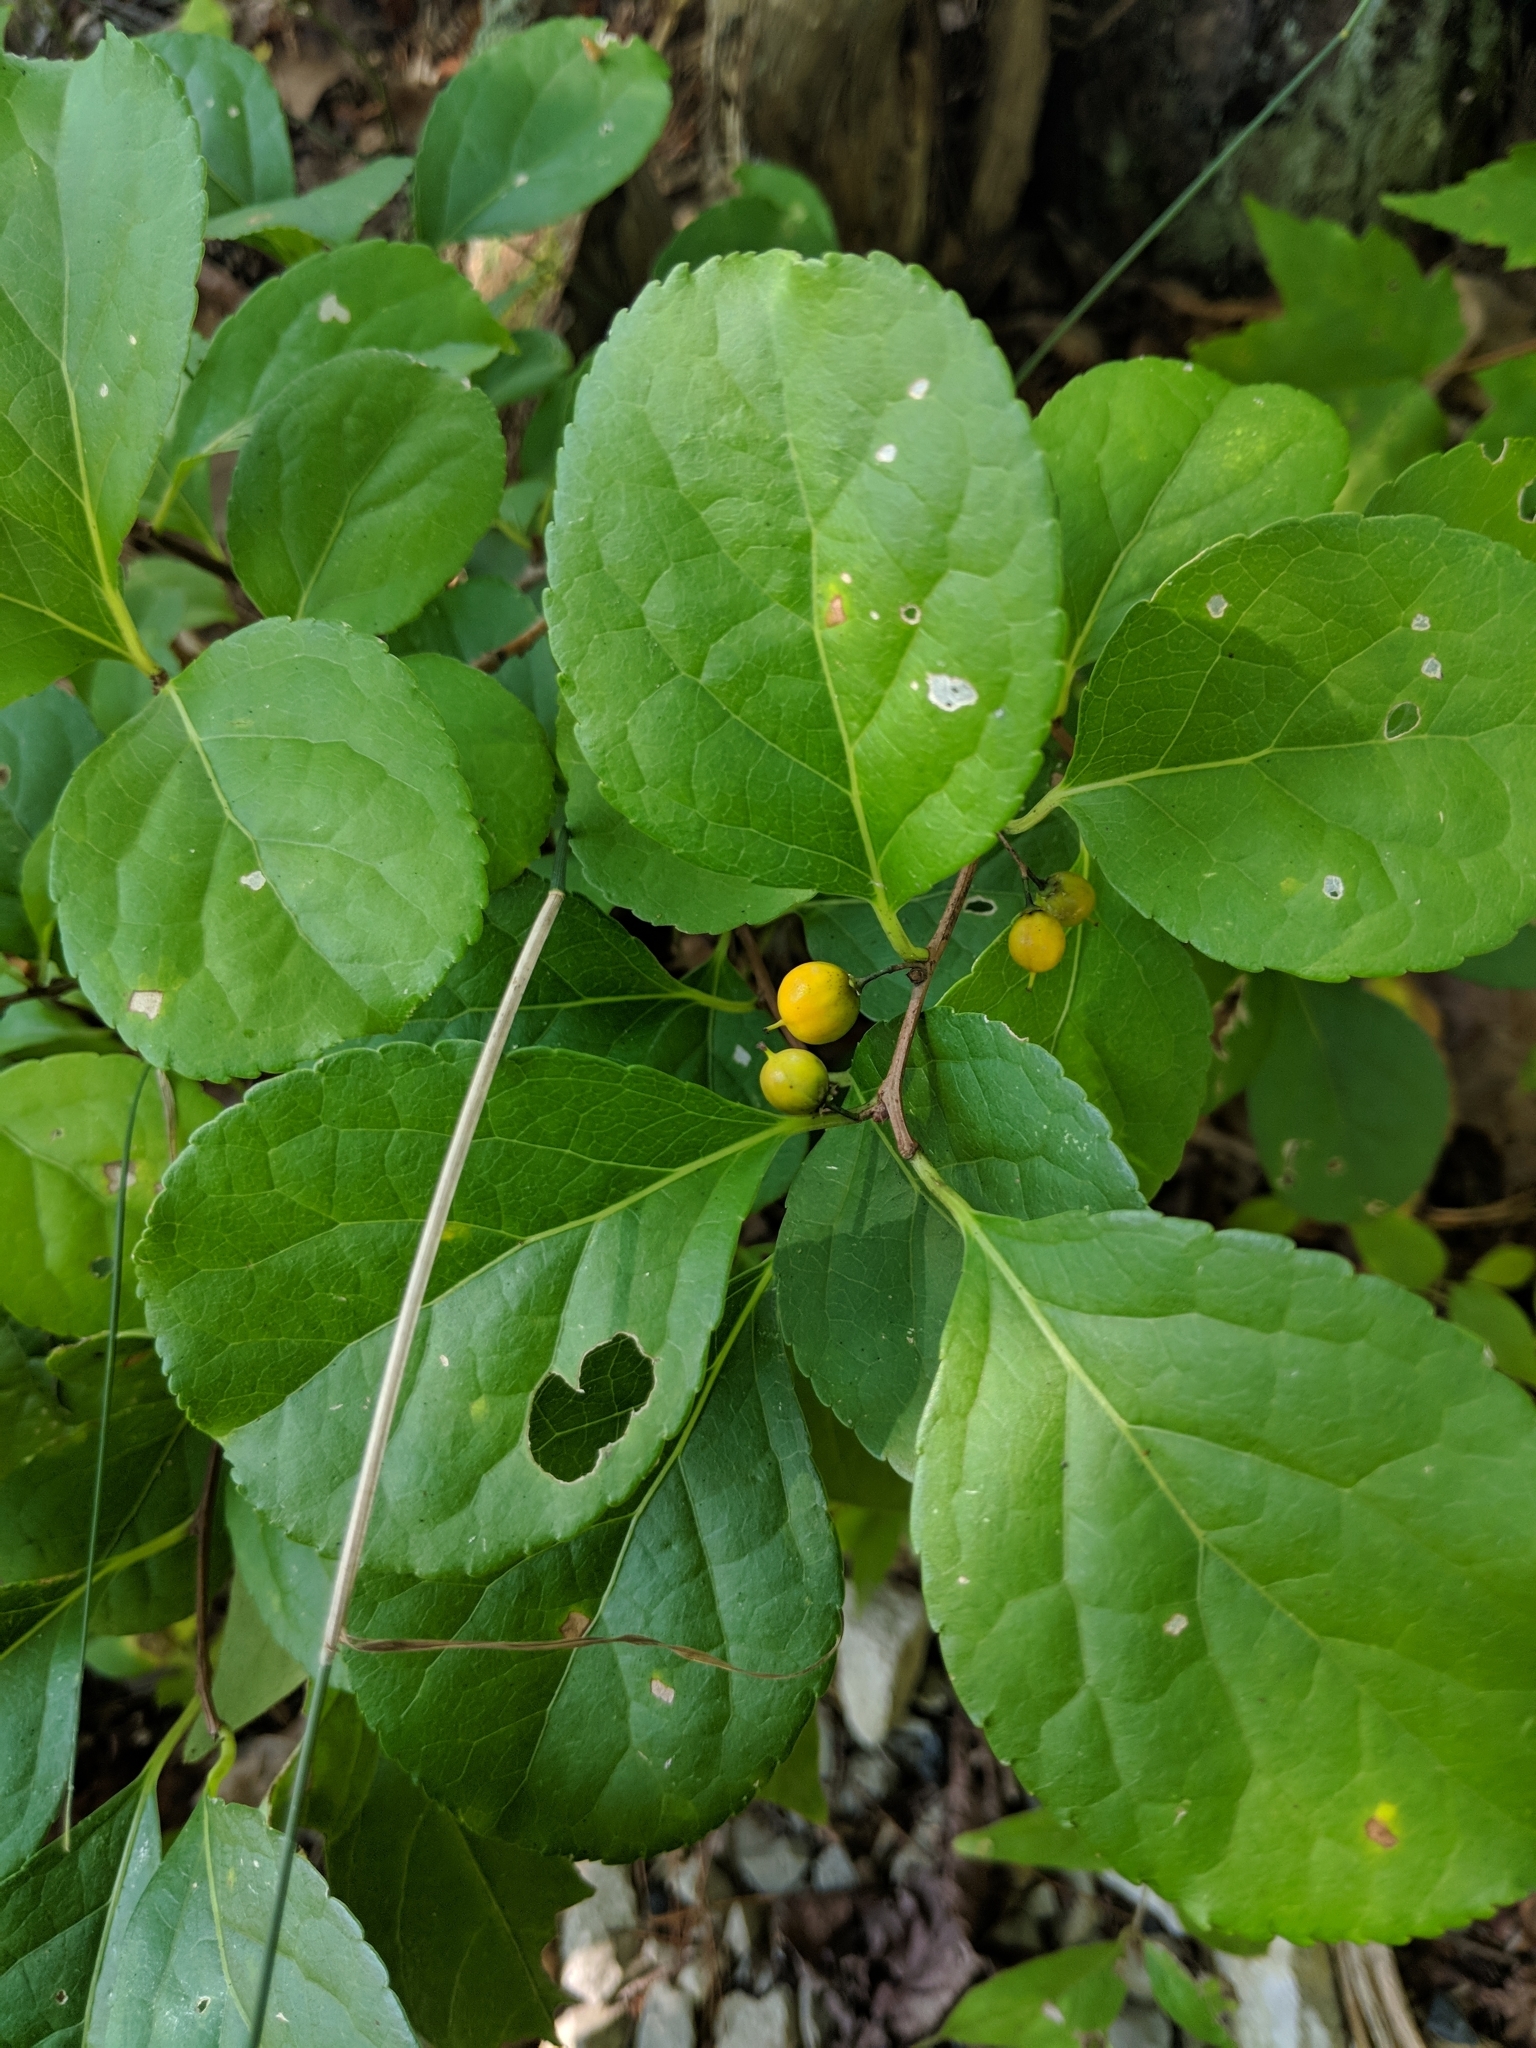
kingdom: Plantae
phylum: Tracheophyta
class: Magnoliopsida
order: Celastrales
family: Celastraceae
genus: Celastrus
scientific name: Celastrus orbiculatus
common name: Oriental bittersweet
